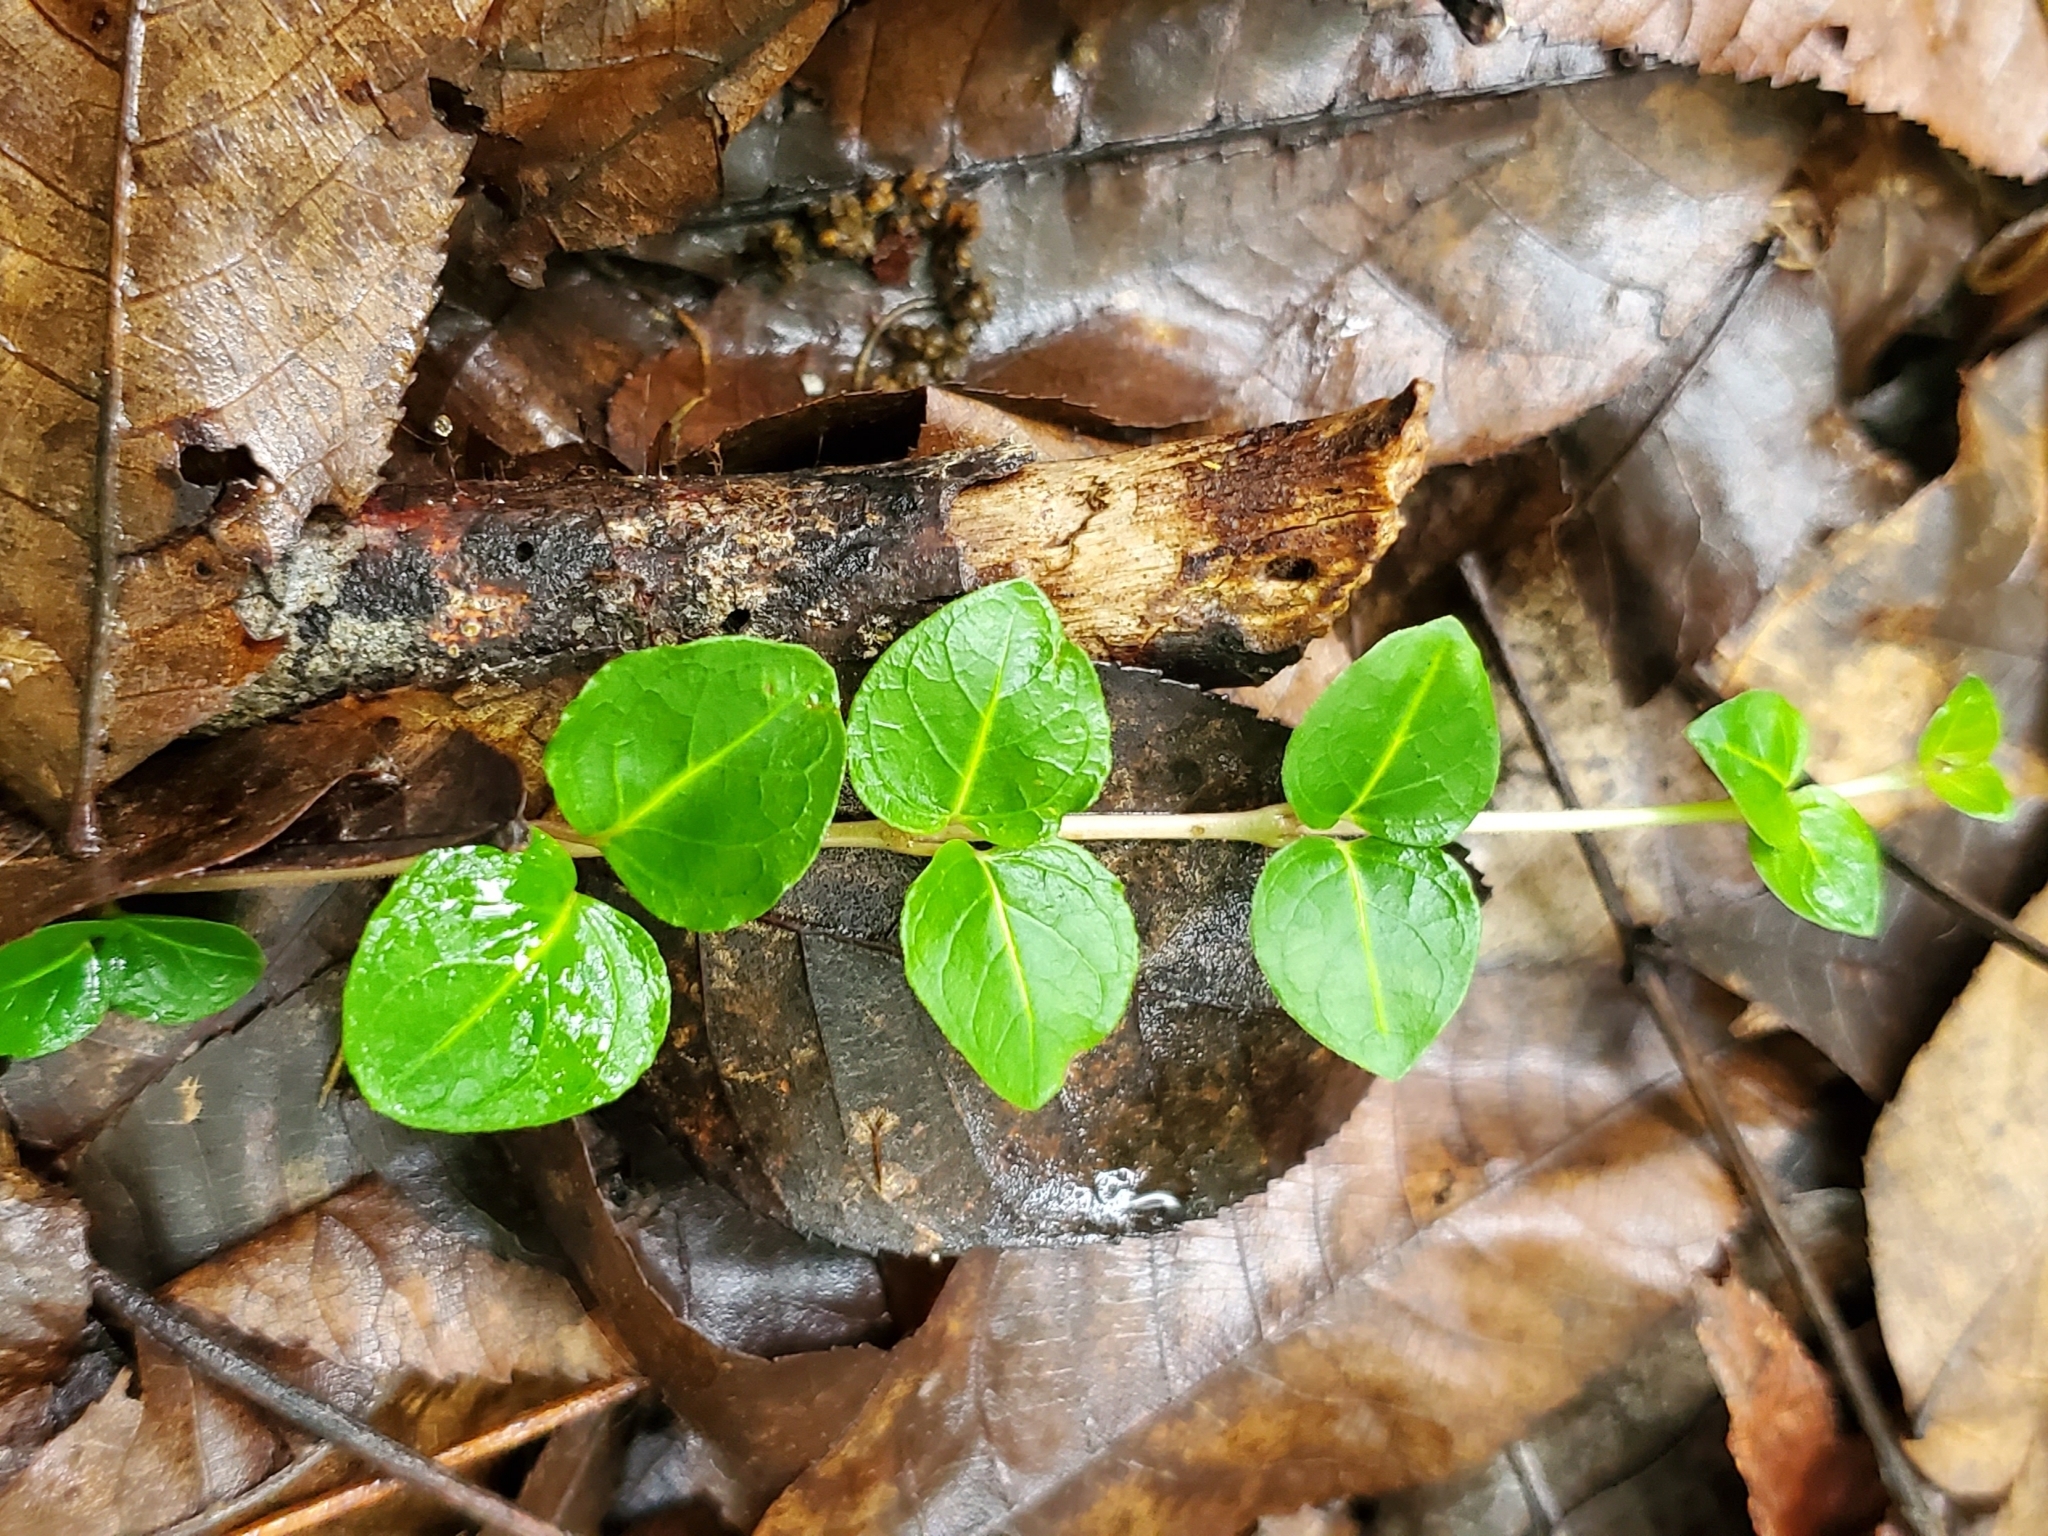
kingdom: Plantae
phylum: Tracheophyta
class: Magnoliopsida
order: Gentianales
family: Rubiaceae
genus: Mitchella
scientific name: Mitchella repens
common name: Partridge-berry
